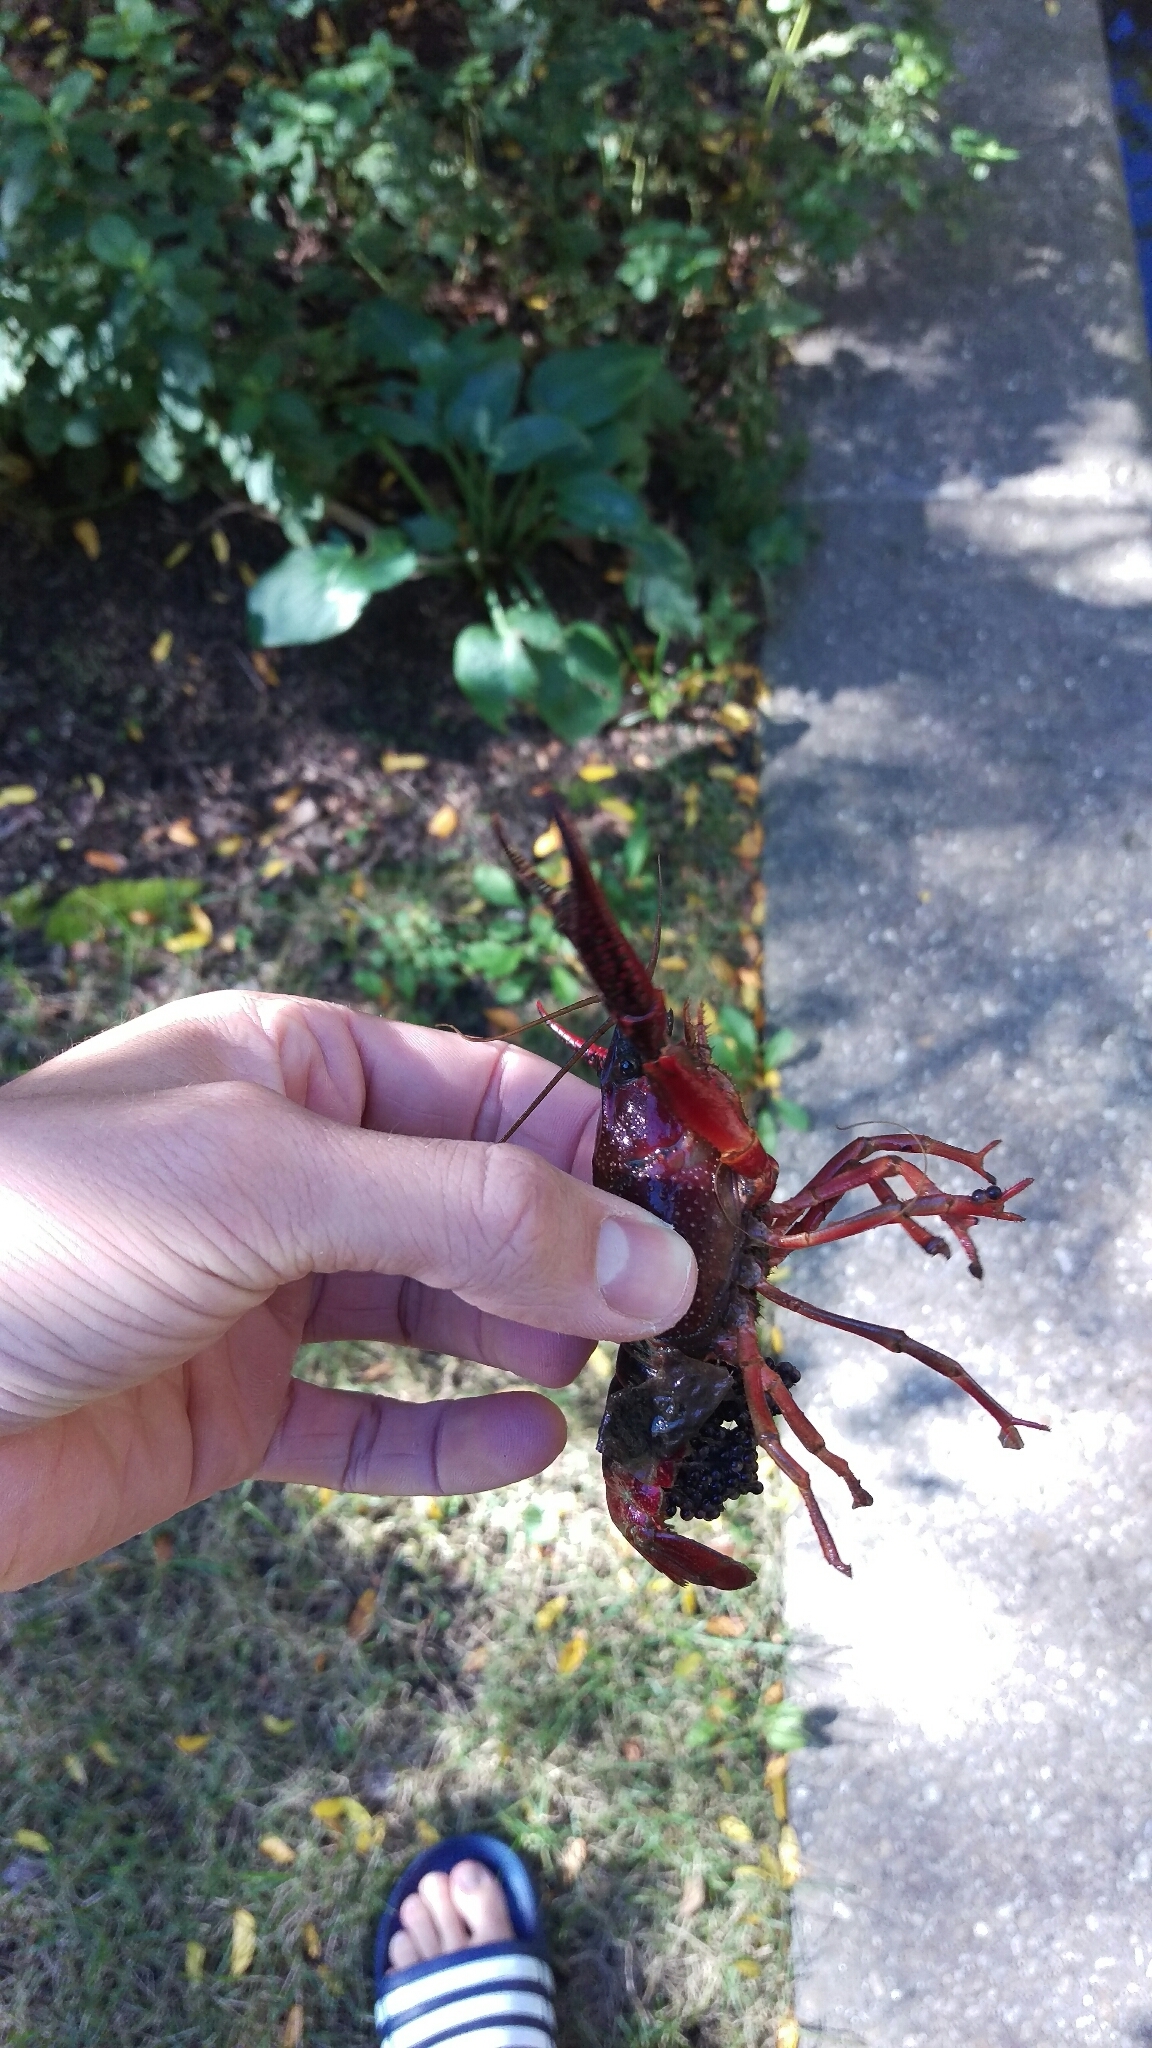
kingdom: Animalia
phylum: Arthropoda
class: Malacostraca
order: Decapoda
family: Cambaridae
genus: Procambarus
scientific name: Procambarus clarkii
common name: Red swamp crayfish
